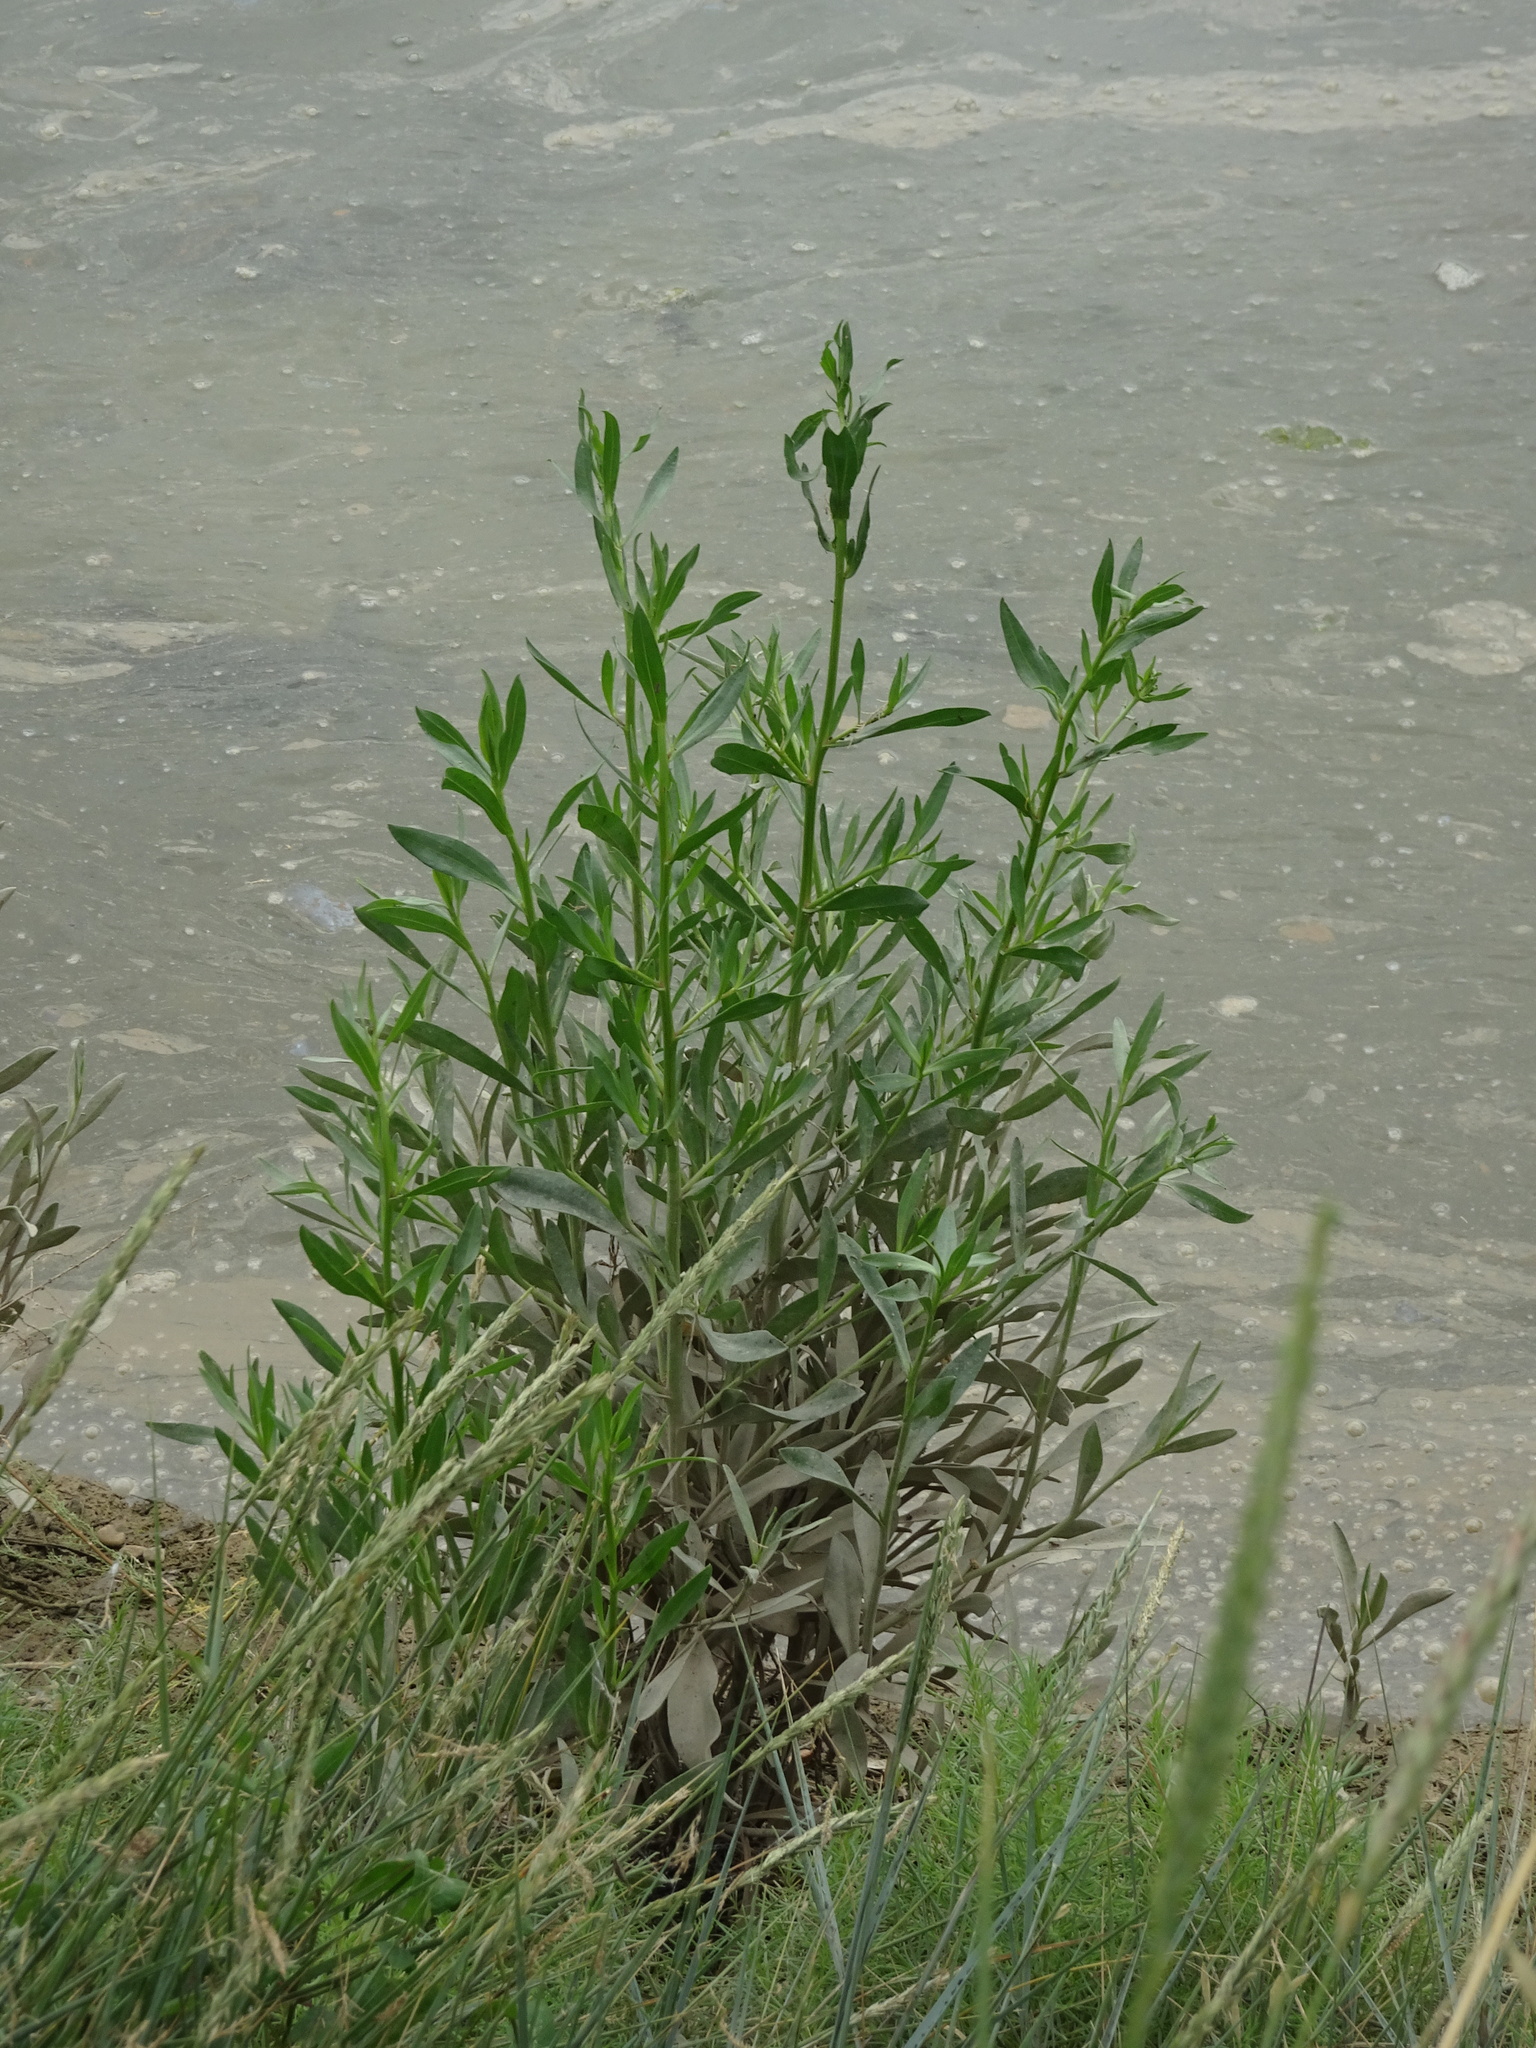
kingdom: Plantae
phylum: Tracheophyta
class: Magnoliopsida
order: Asterales
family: Asteraceae
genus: Tripolium
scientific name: Tripolium pannonicum
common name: Sea aster
